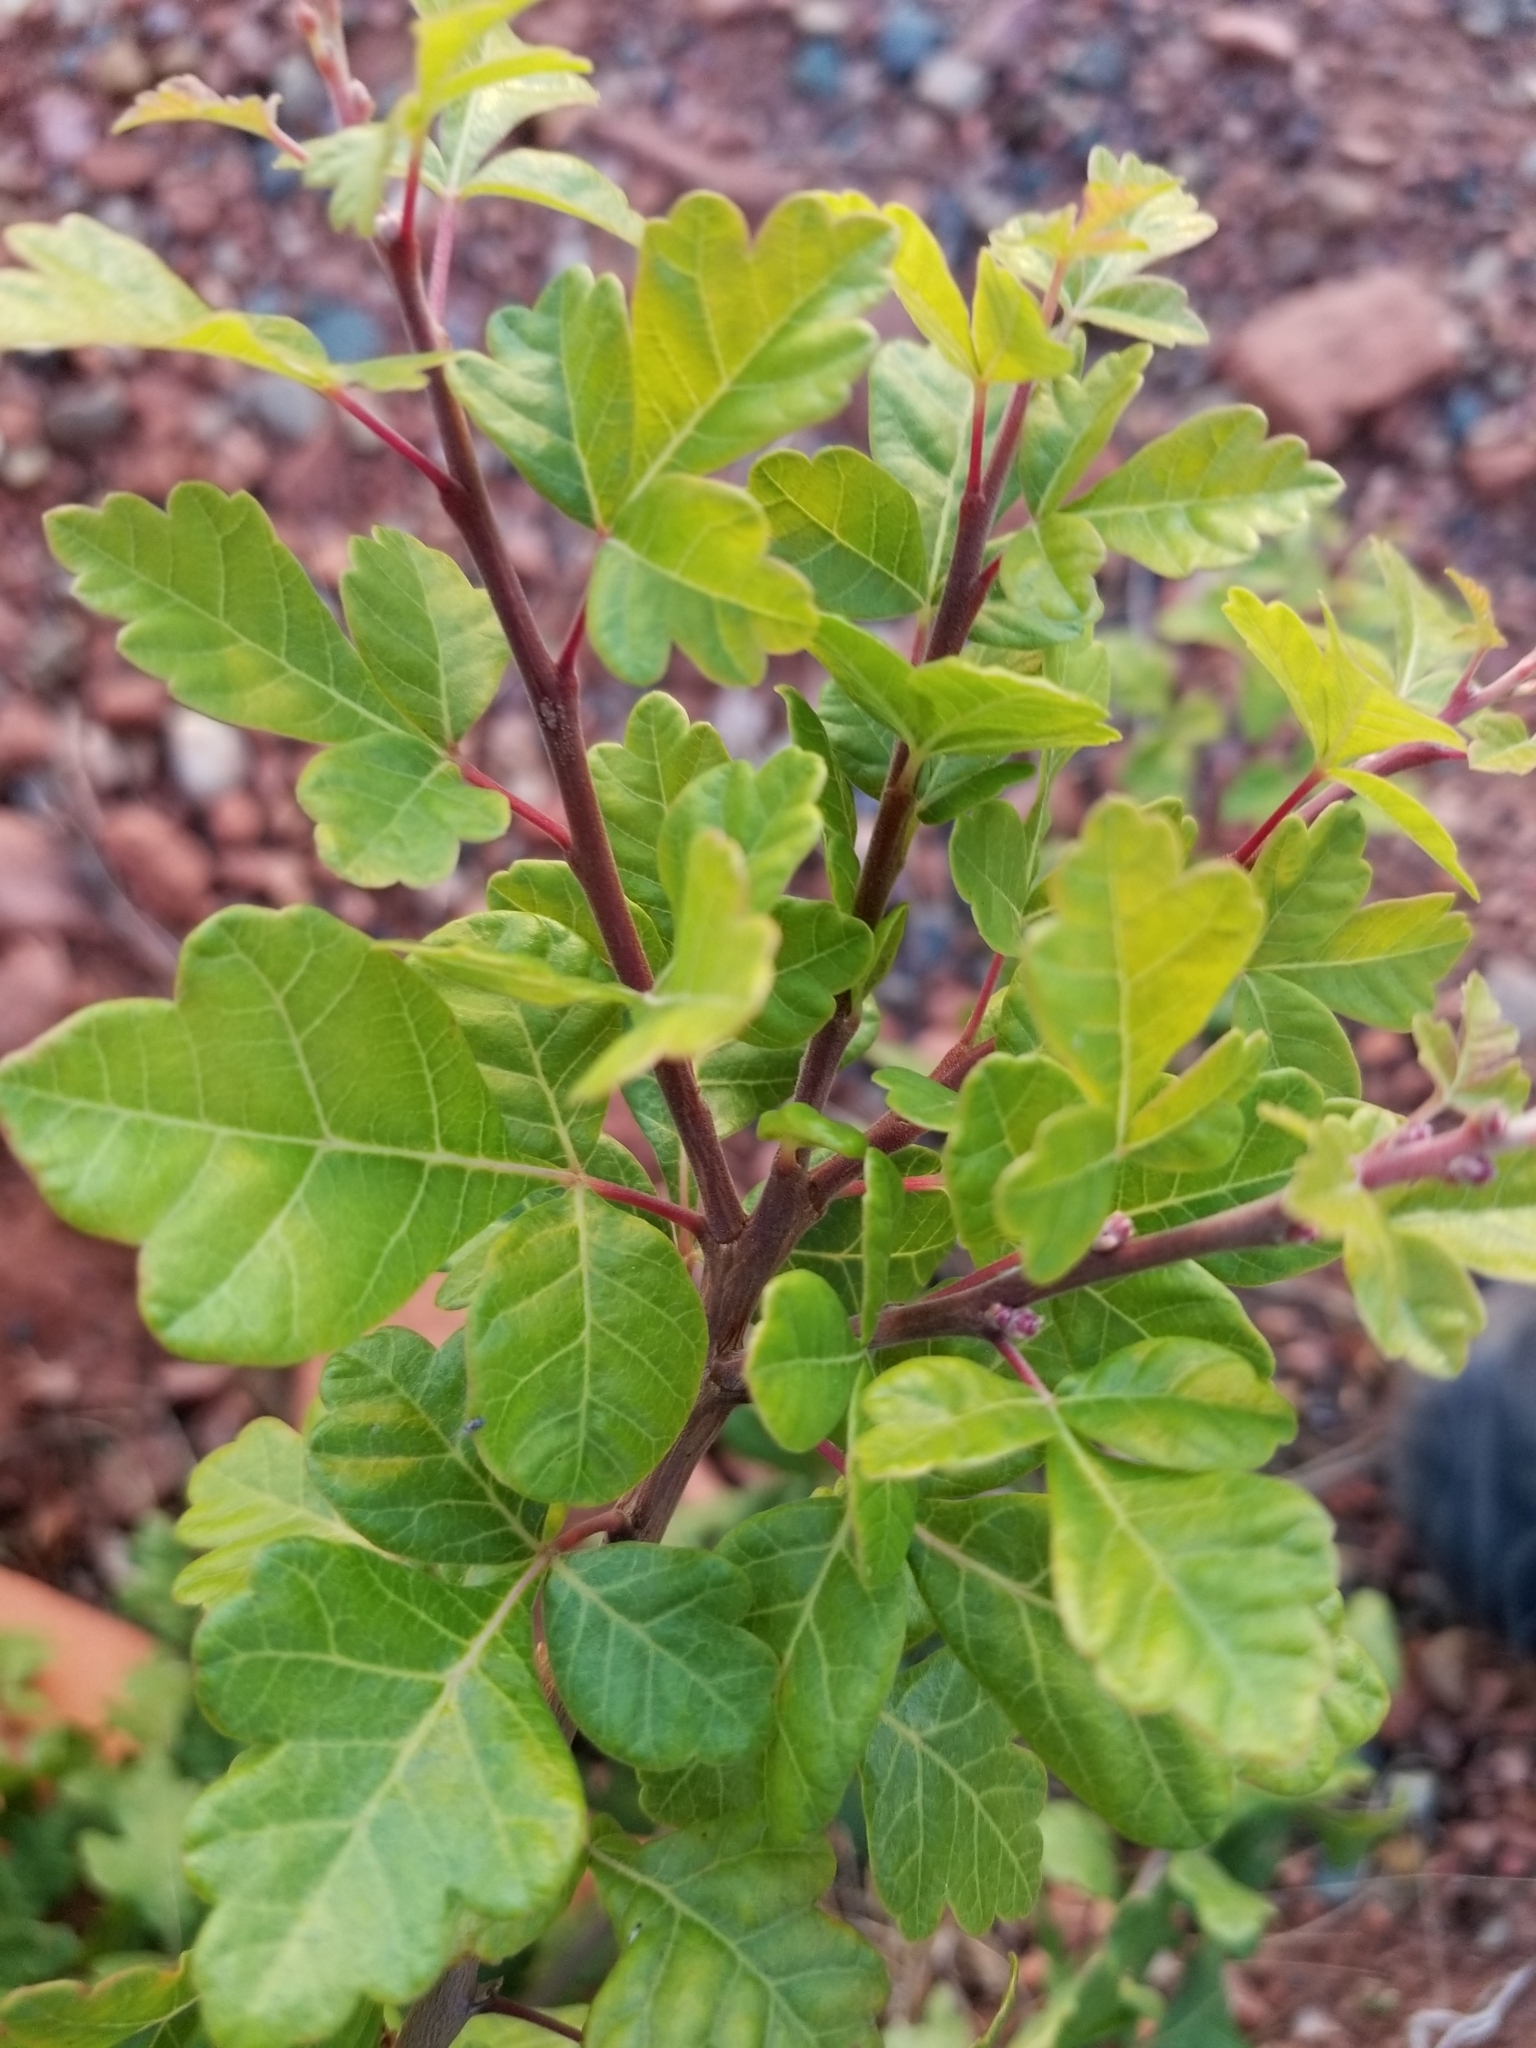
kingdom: Plantae
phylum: Tracheophyta
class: Magnoliopsida
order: Sapindales
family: Anacardiaceae
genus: Rhus
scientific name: Rhus aromatica
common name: Aromatic sumac
